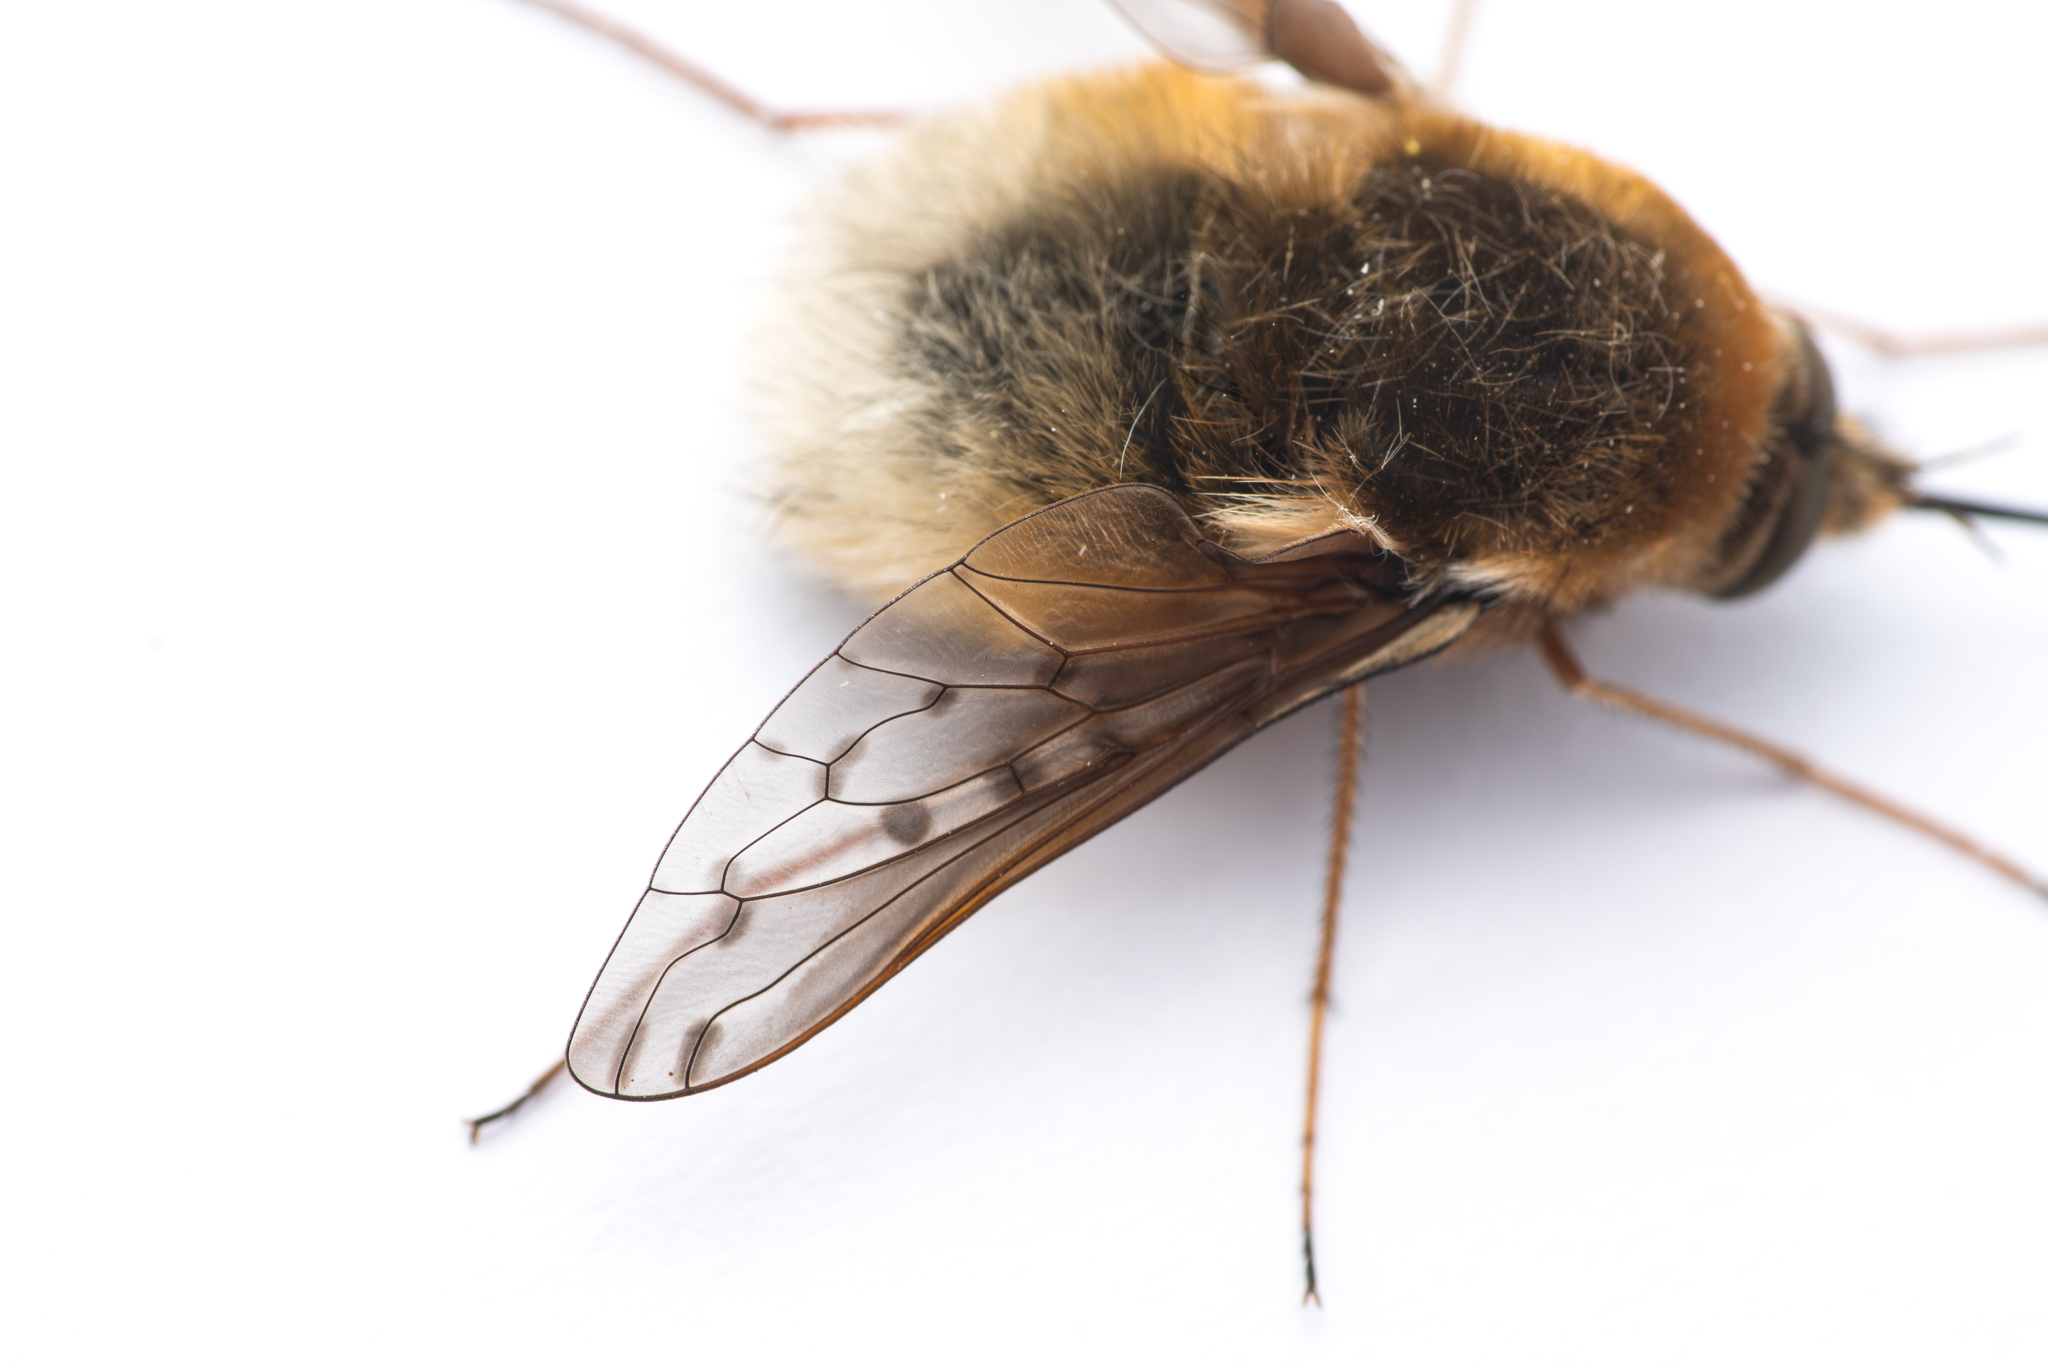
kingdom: Animalia
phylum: Arthropoda
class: Insecta
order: Diptera
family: Bombyliidae
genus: Bombylius
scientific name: Bombylius medius
